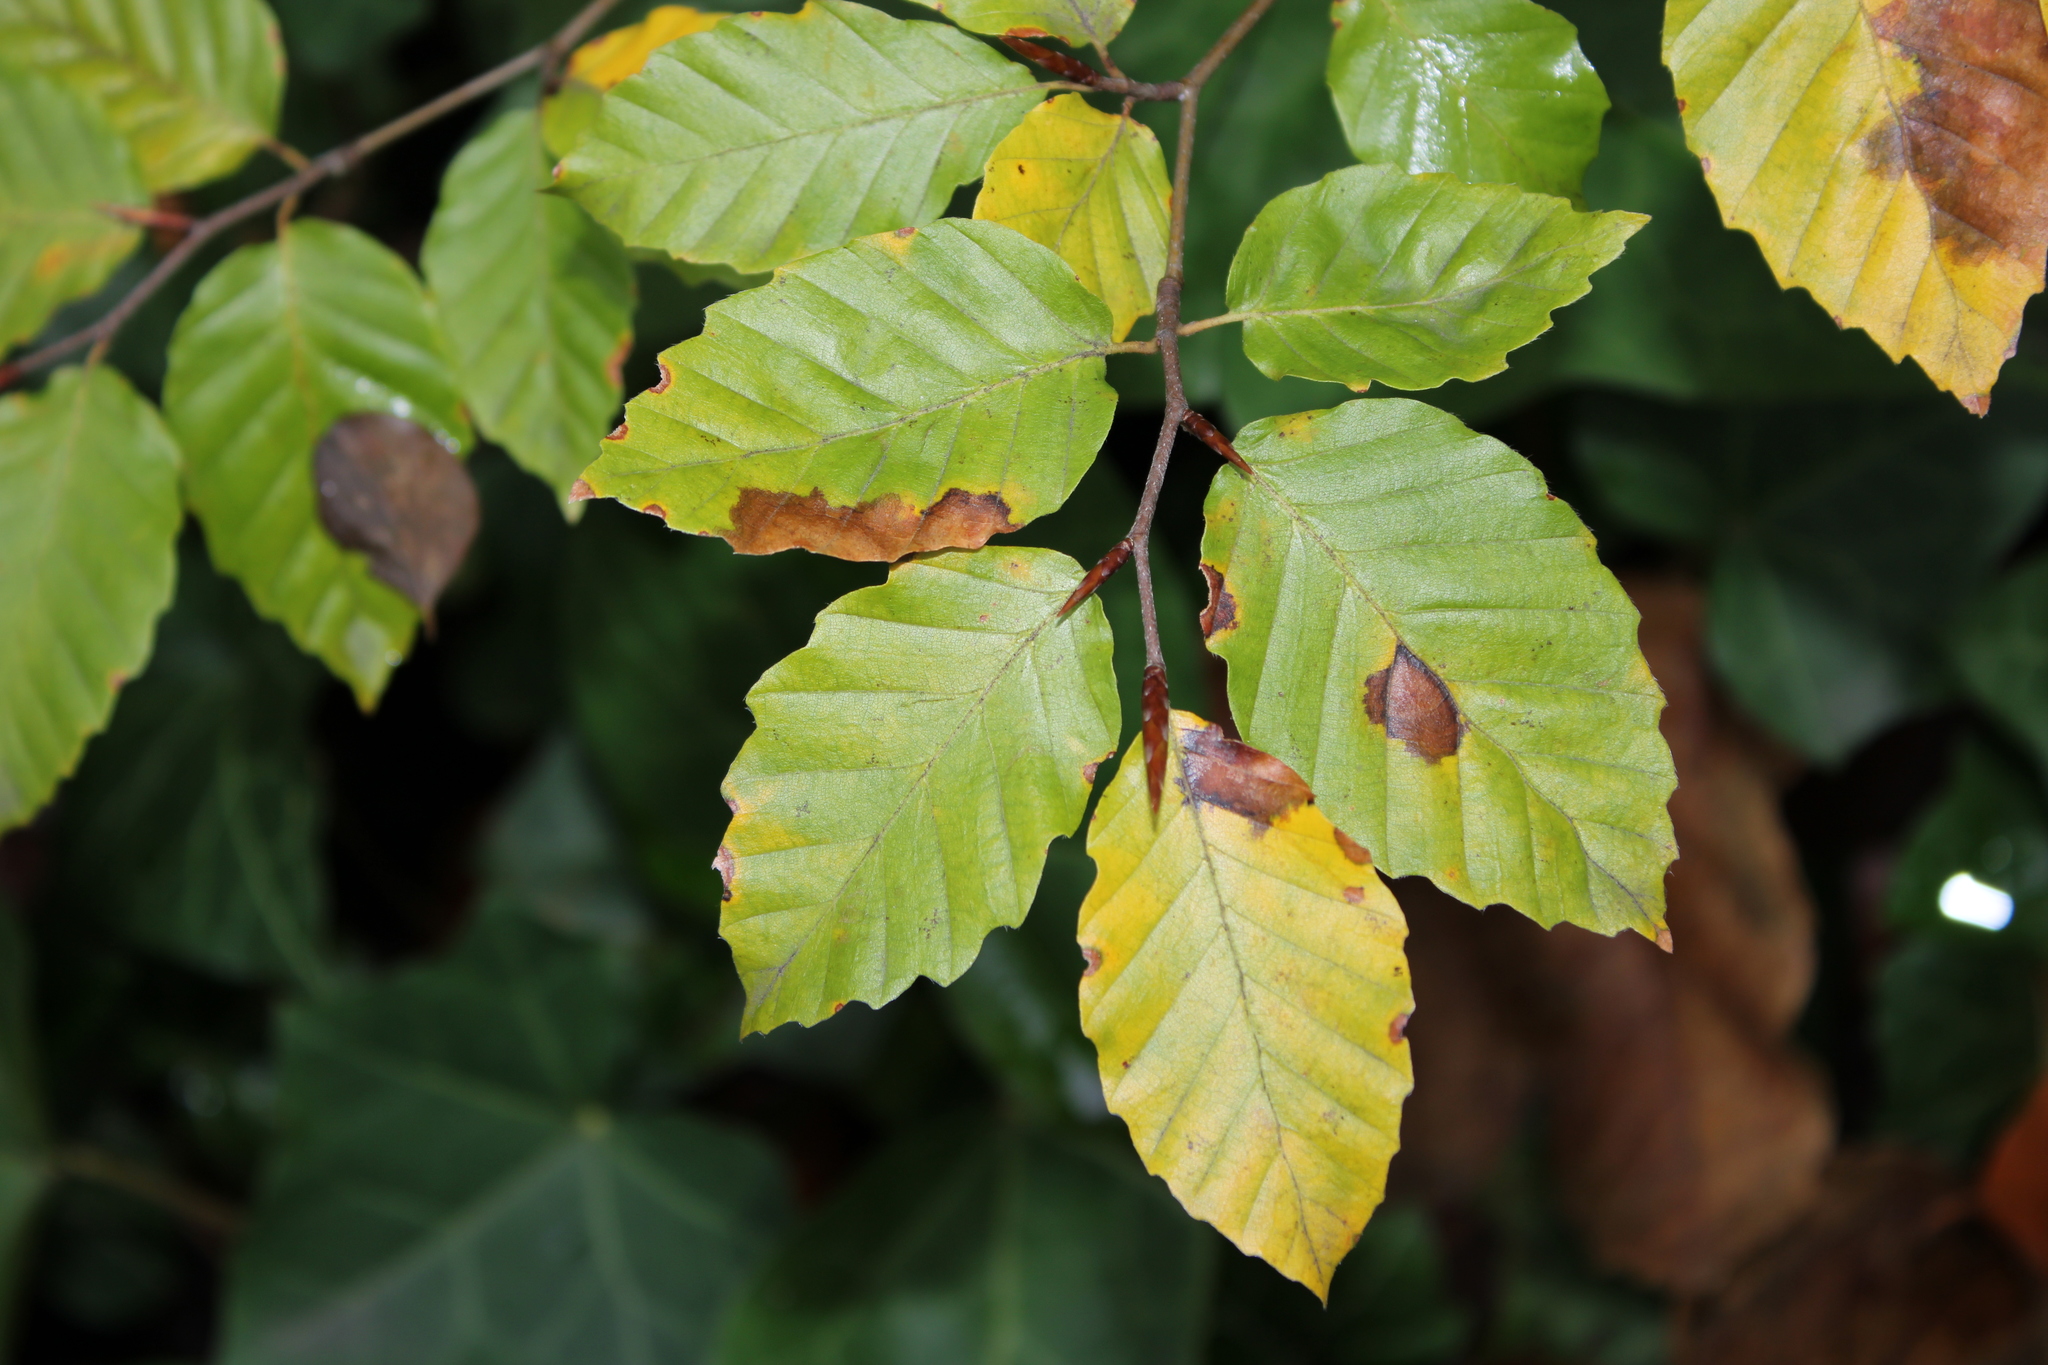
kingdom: Plantae
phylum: Tracheophyta
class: Magnoliopsida
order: Fagales
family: Fagaceae
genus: Fagus
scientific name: Fagus sylvatica
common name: Beech
